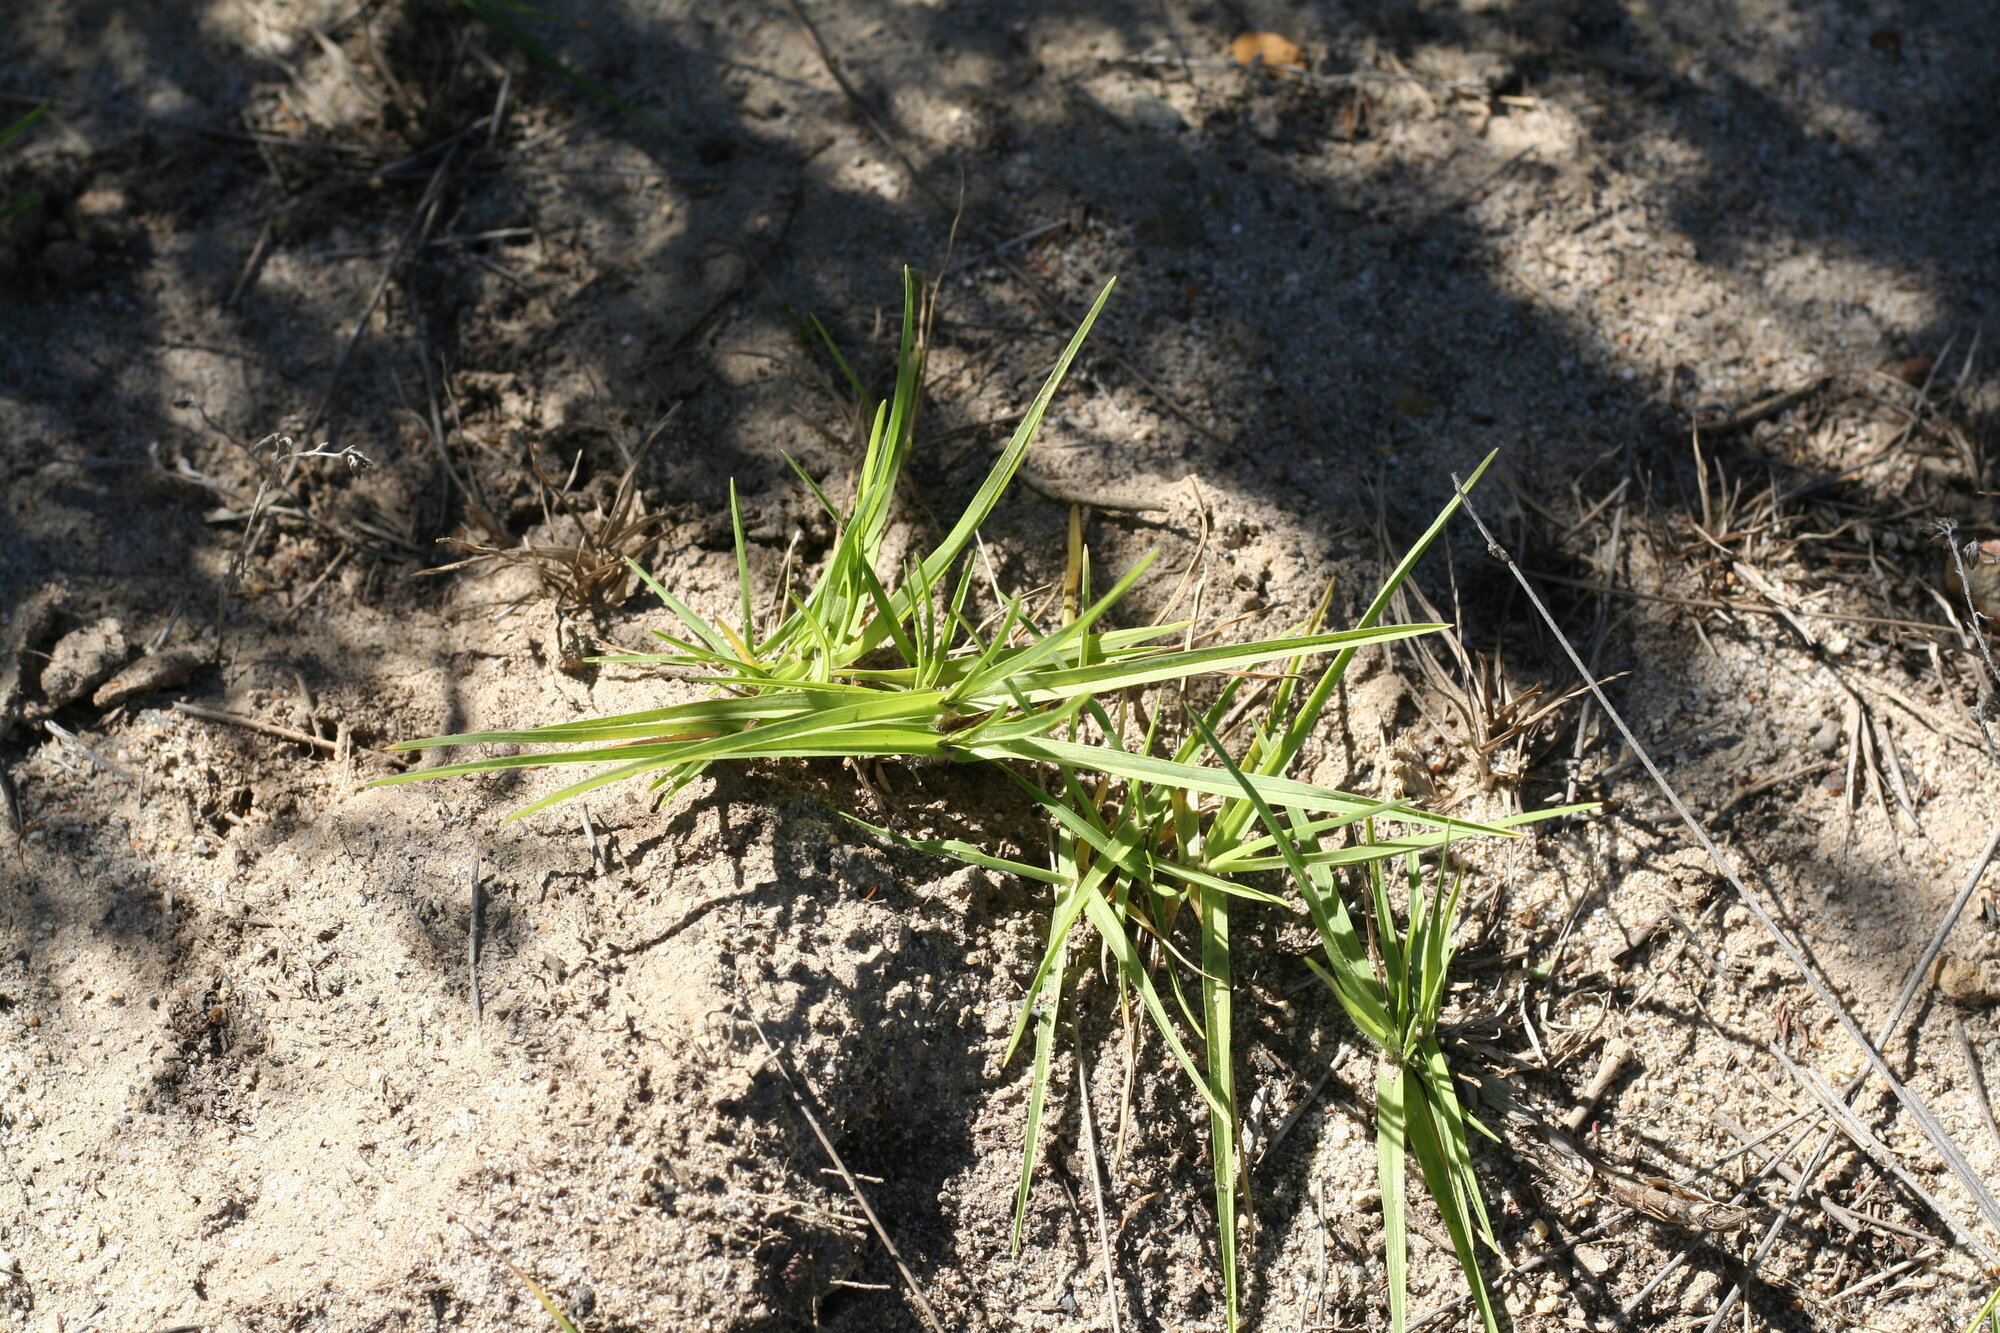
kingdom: Plantae
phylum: Tracheophyta
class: Liliopsida
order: Poales
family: Poaceae
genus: Cenchrus
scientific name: Cenchrus clandestinus
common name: Kikuyugrass
